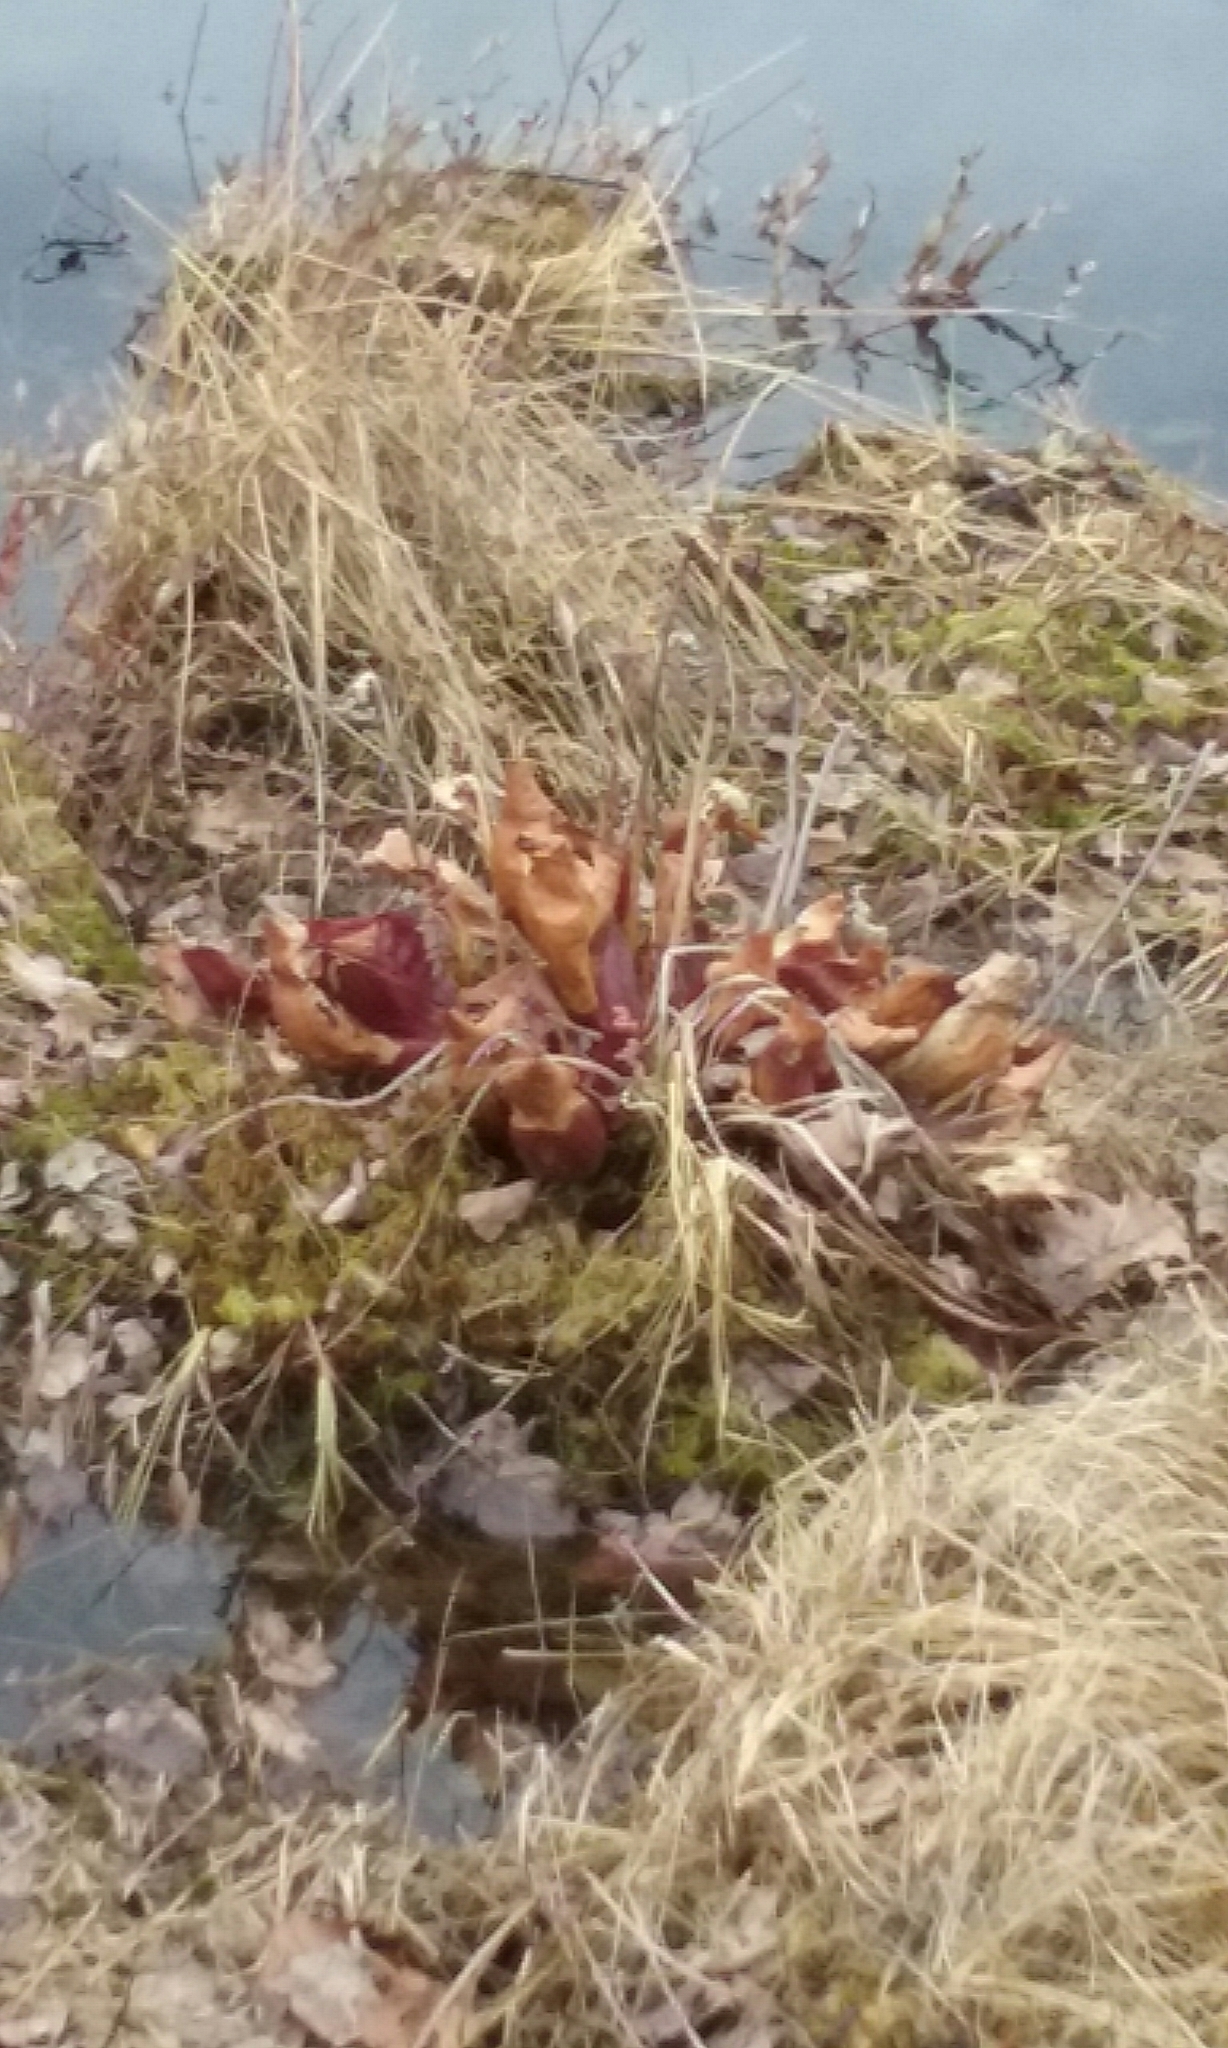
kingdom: Plantae
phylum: Tracheophyta
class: Magnoliopsida
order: Ericales
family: Sarraceniaceae
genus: Sarracenia
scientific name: Sarracenia purpurea
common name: Pitcherplant
